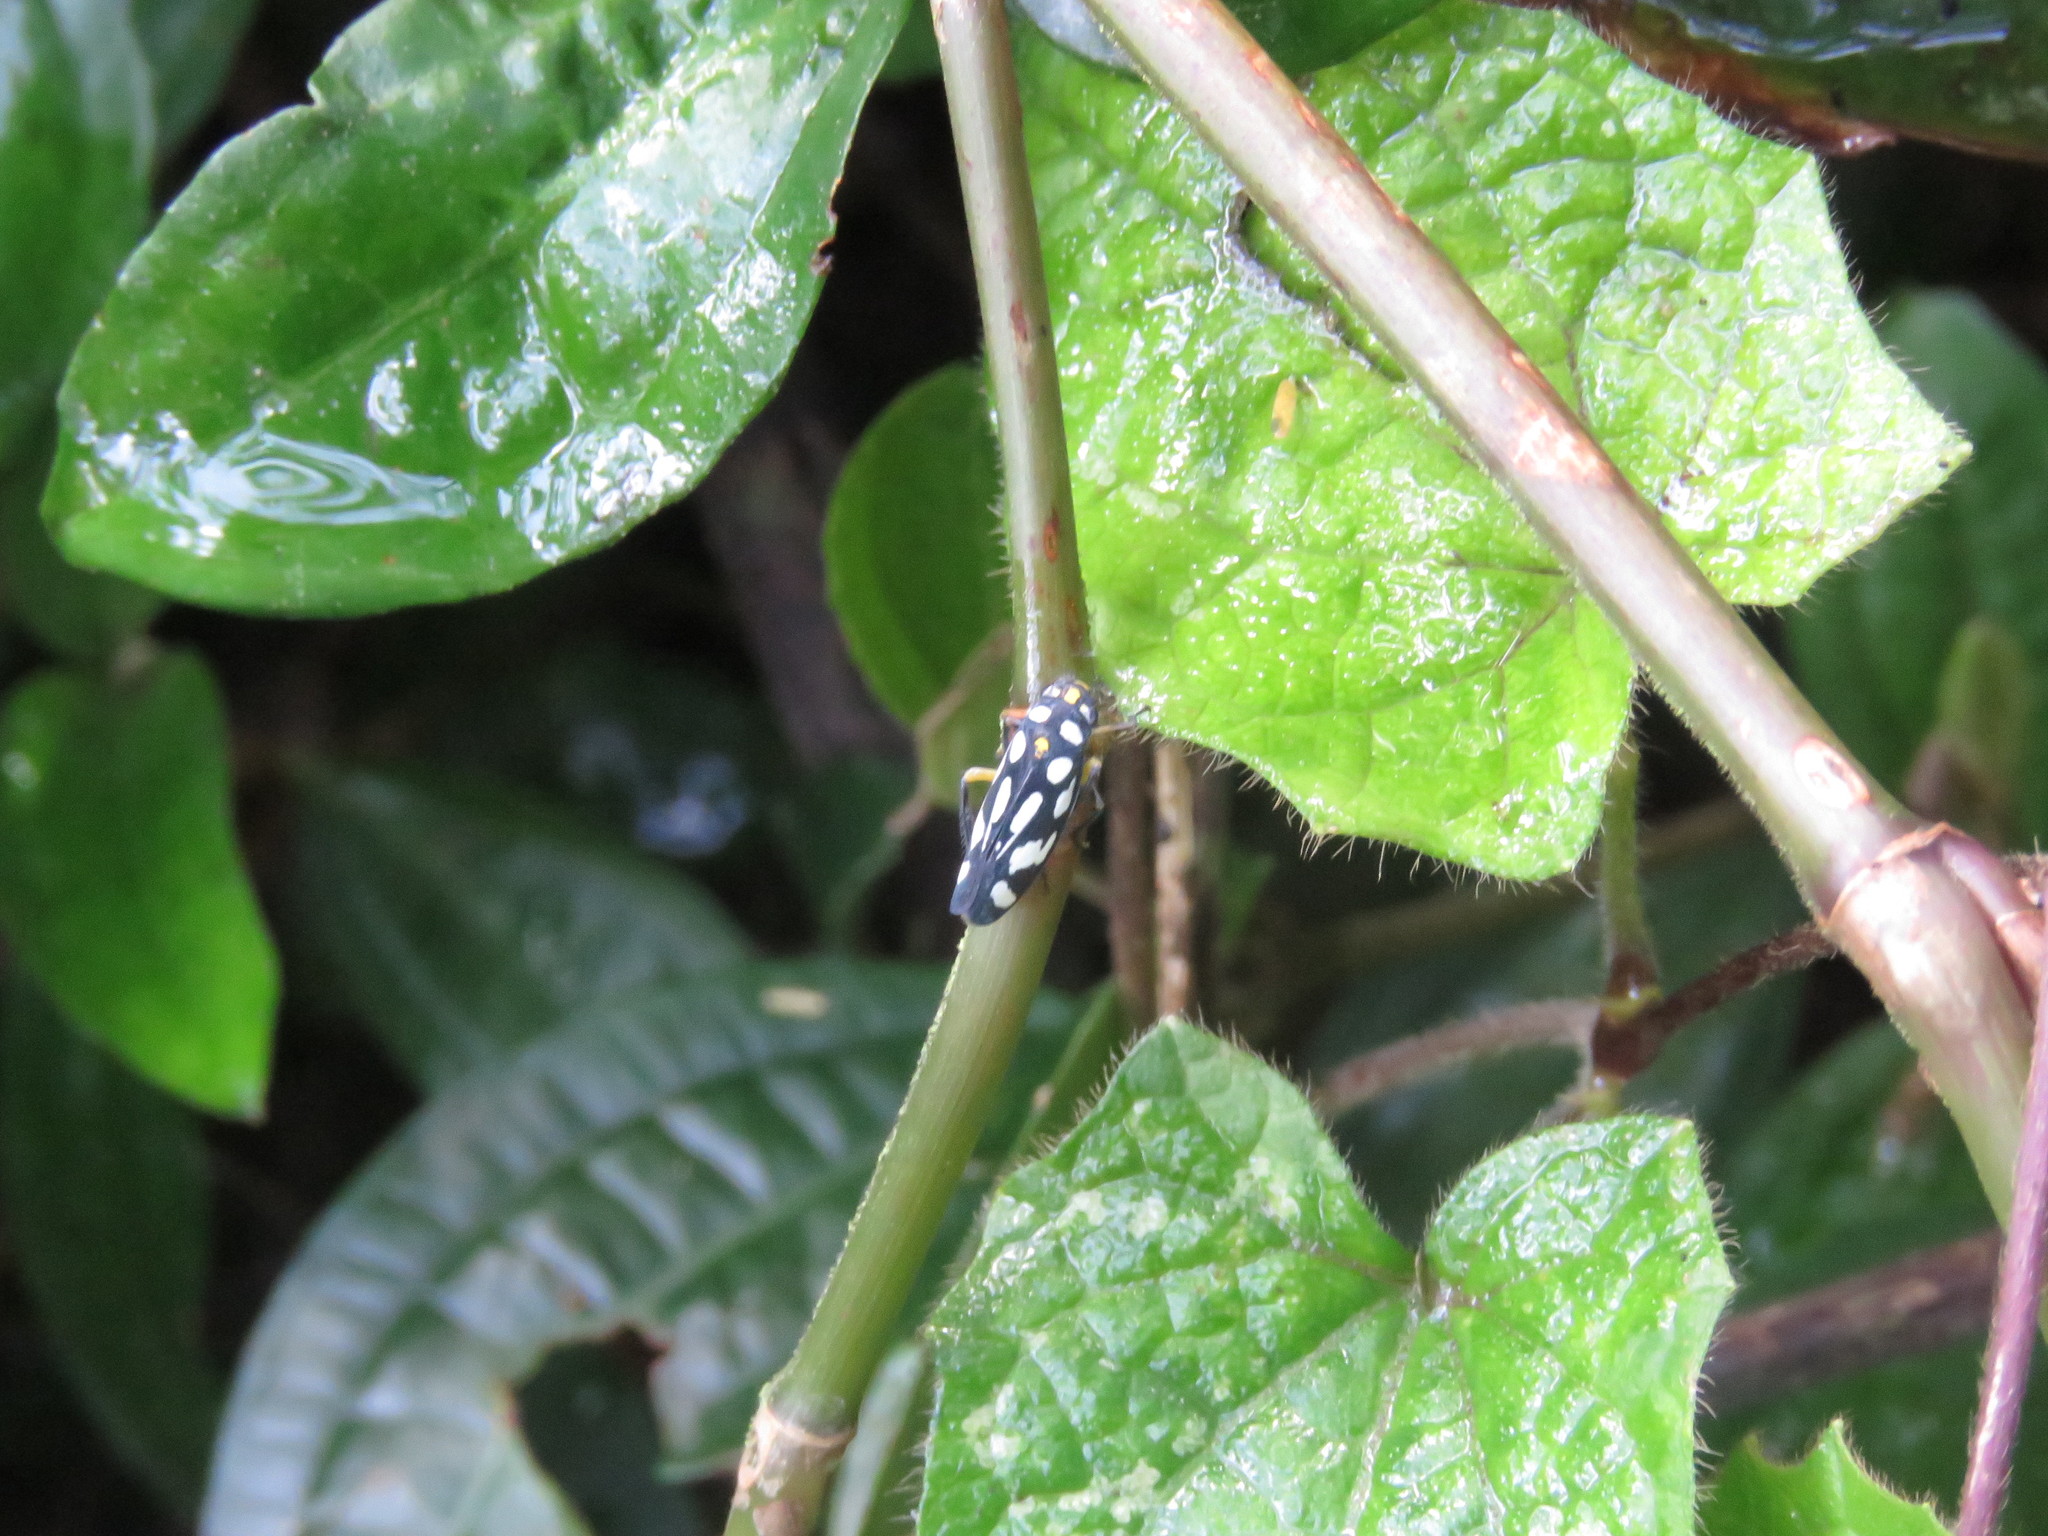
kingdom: Animalia
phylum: Arthropoda
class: Insecta
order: Hemiptera
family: Cicadellidae
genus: Stehlikiana
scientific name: Stehlikiana crassa
